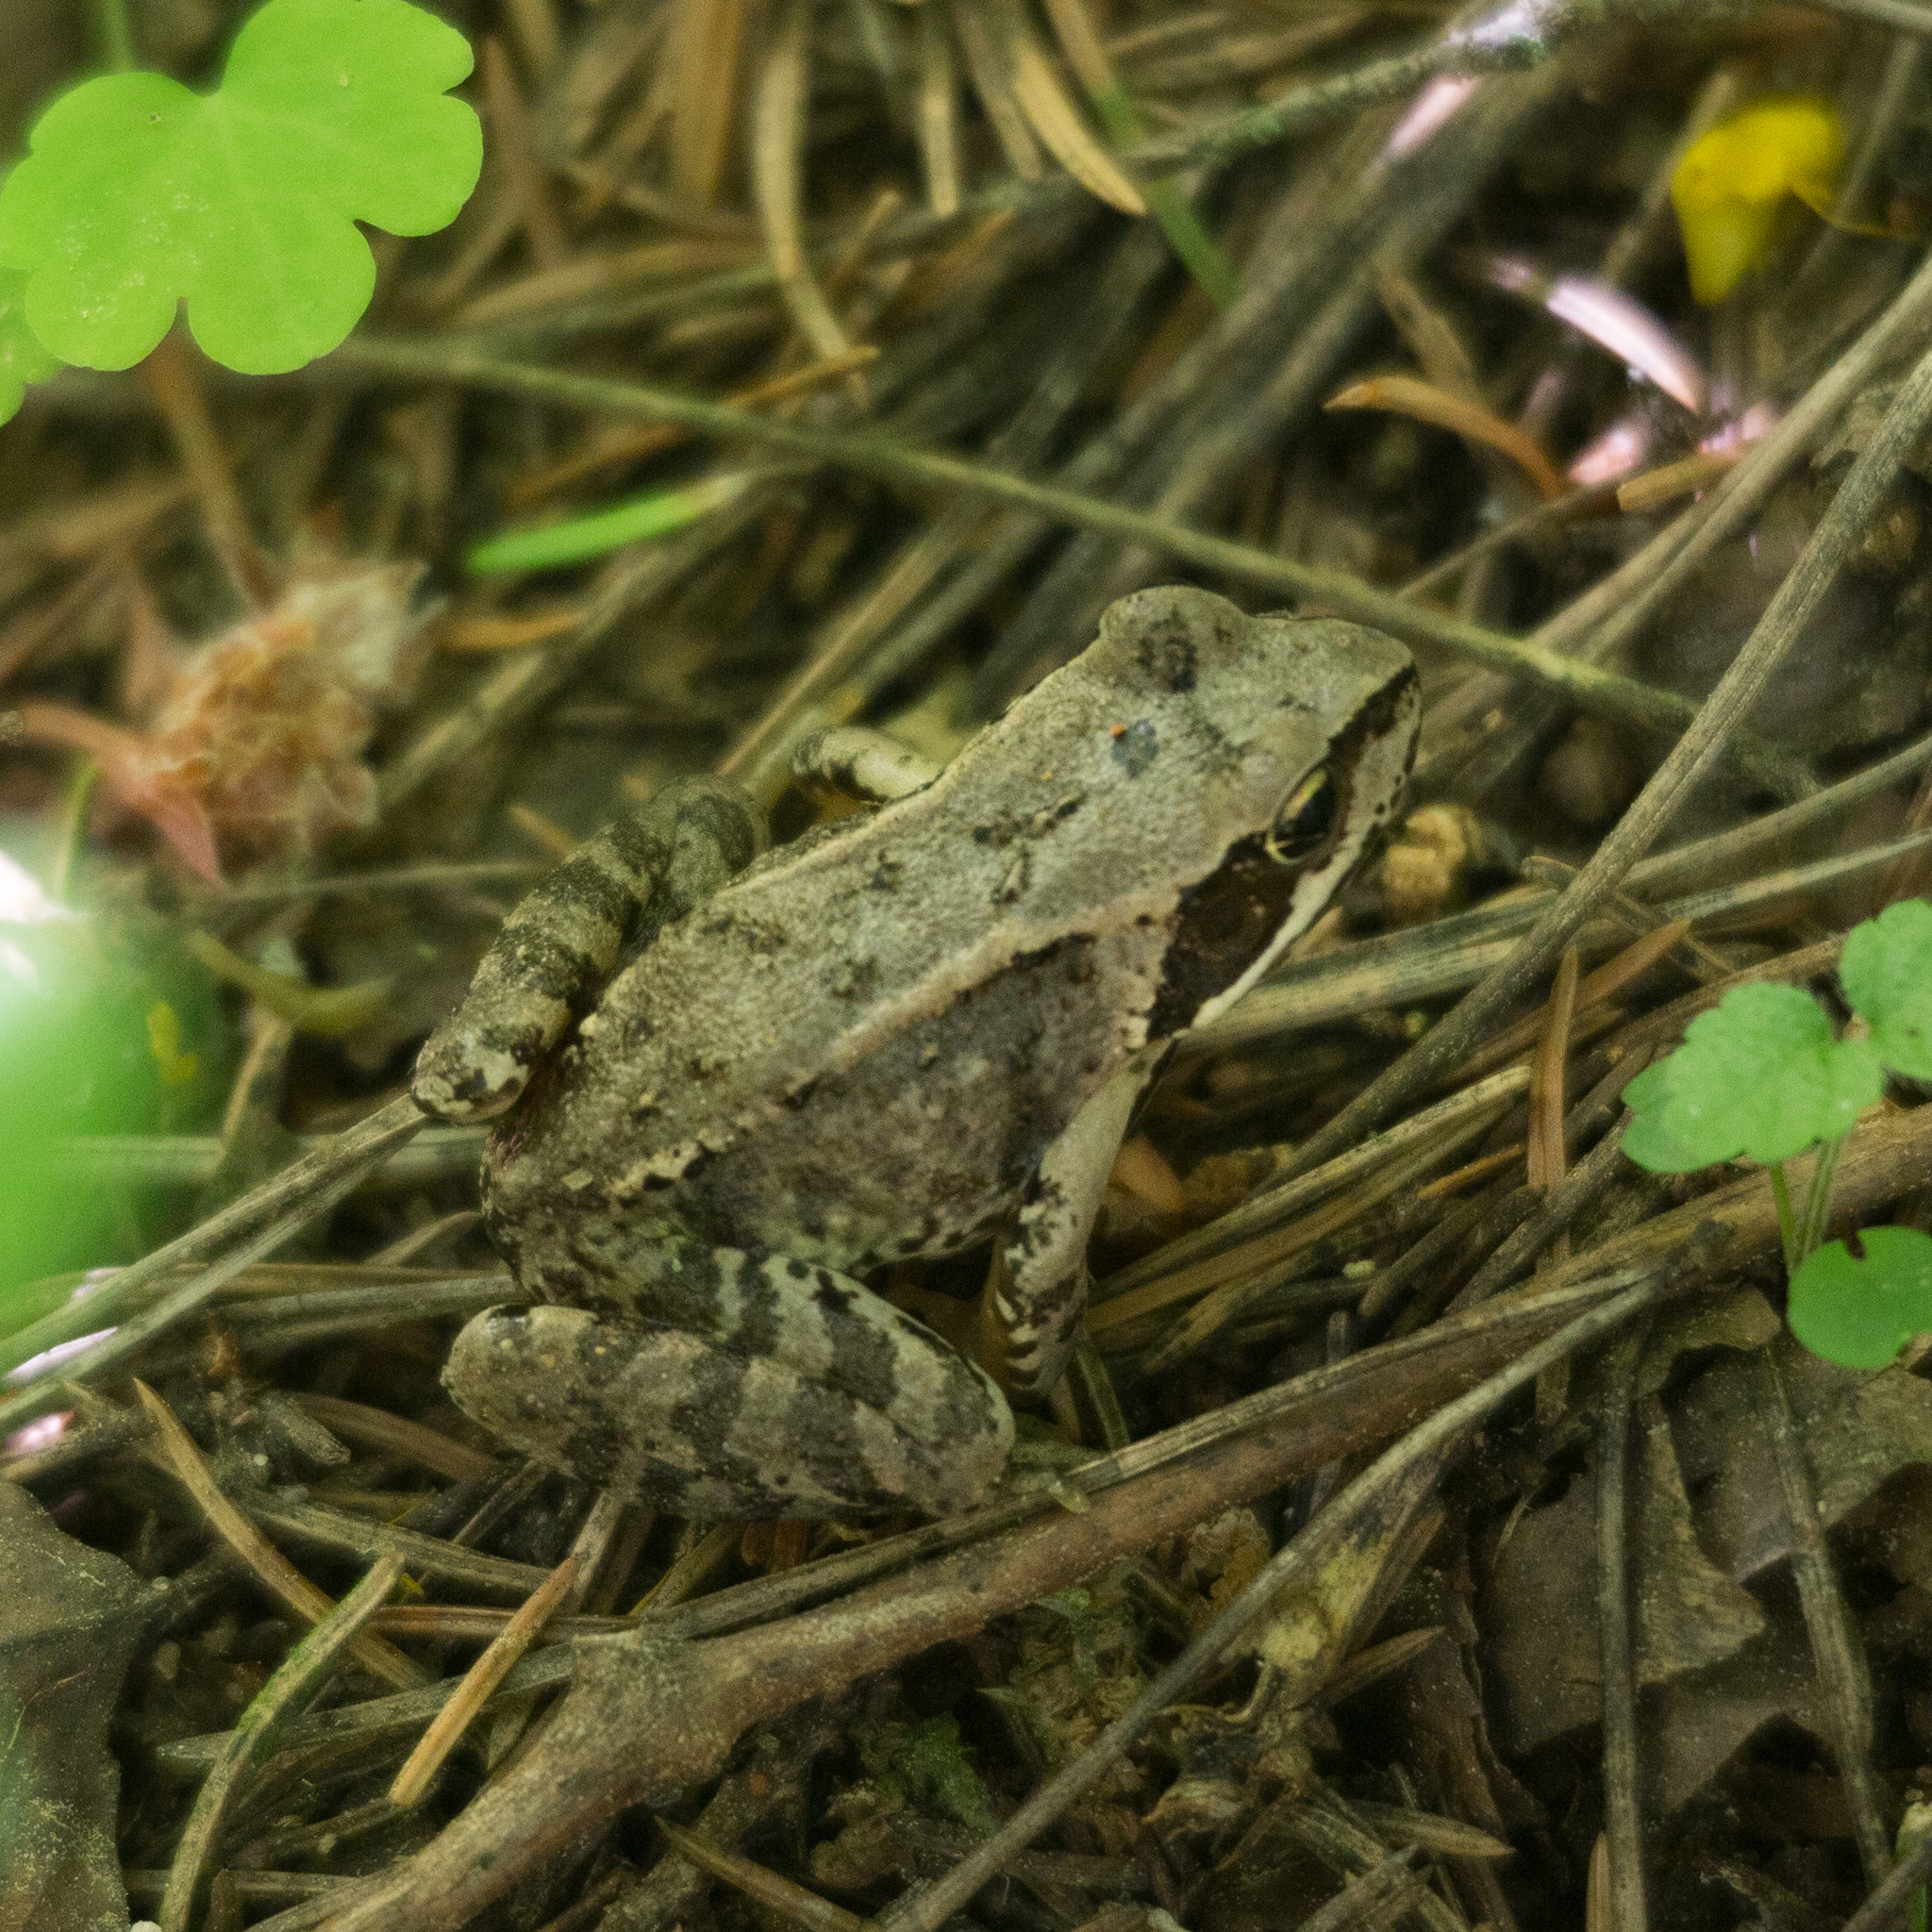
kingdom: Animalia
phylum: Chordata
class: Amphibia
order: Anura
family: Ranidae
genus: Rana
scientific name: Rana temporaria
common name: Common frog
